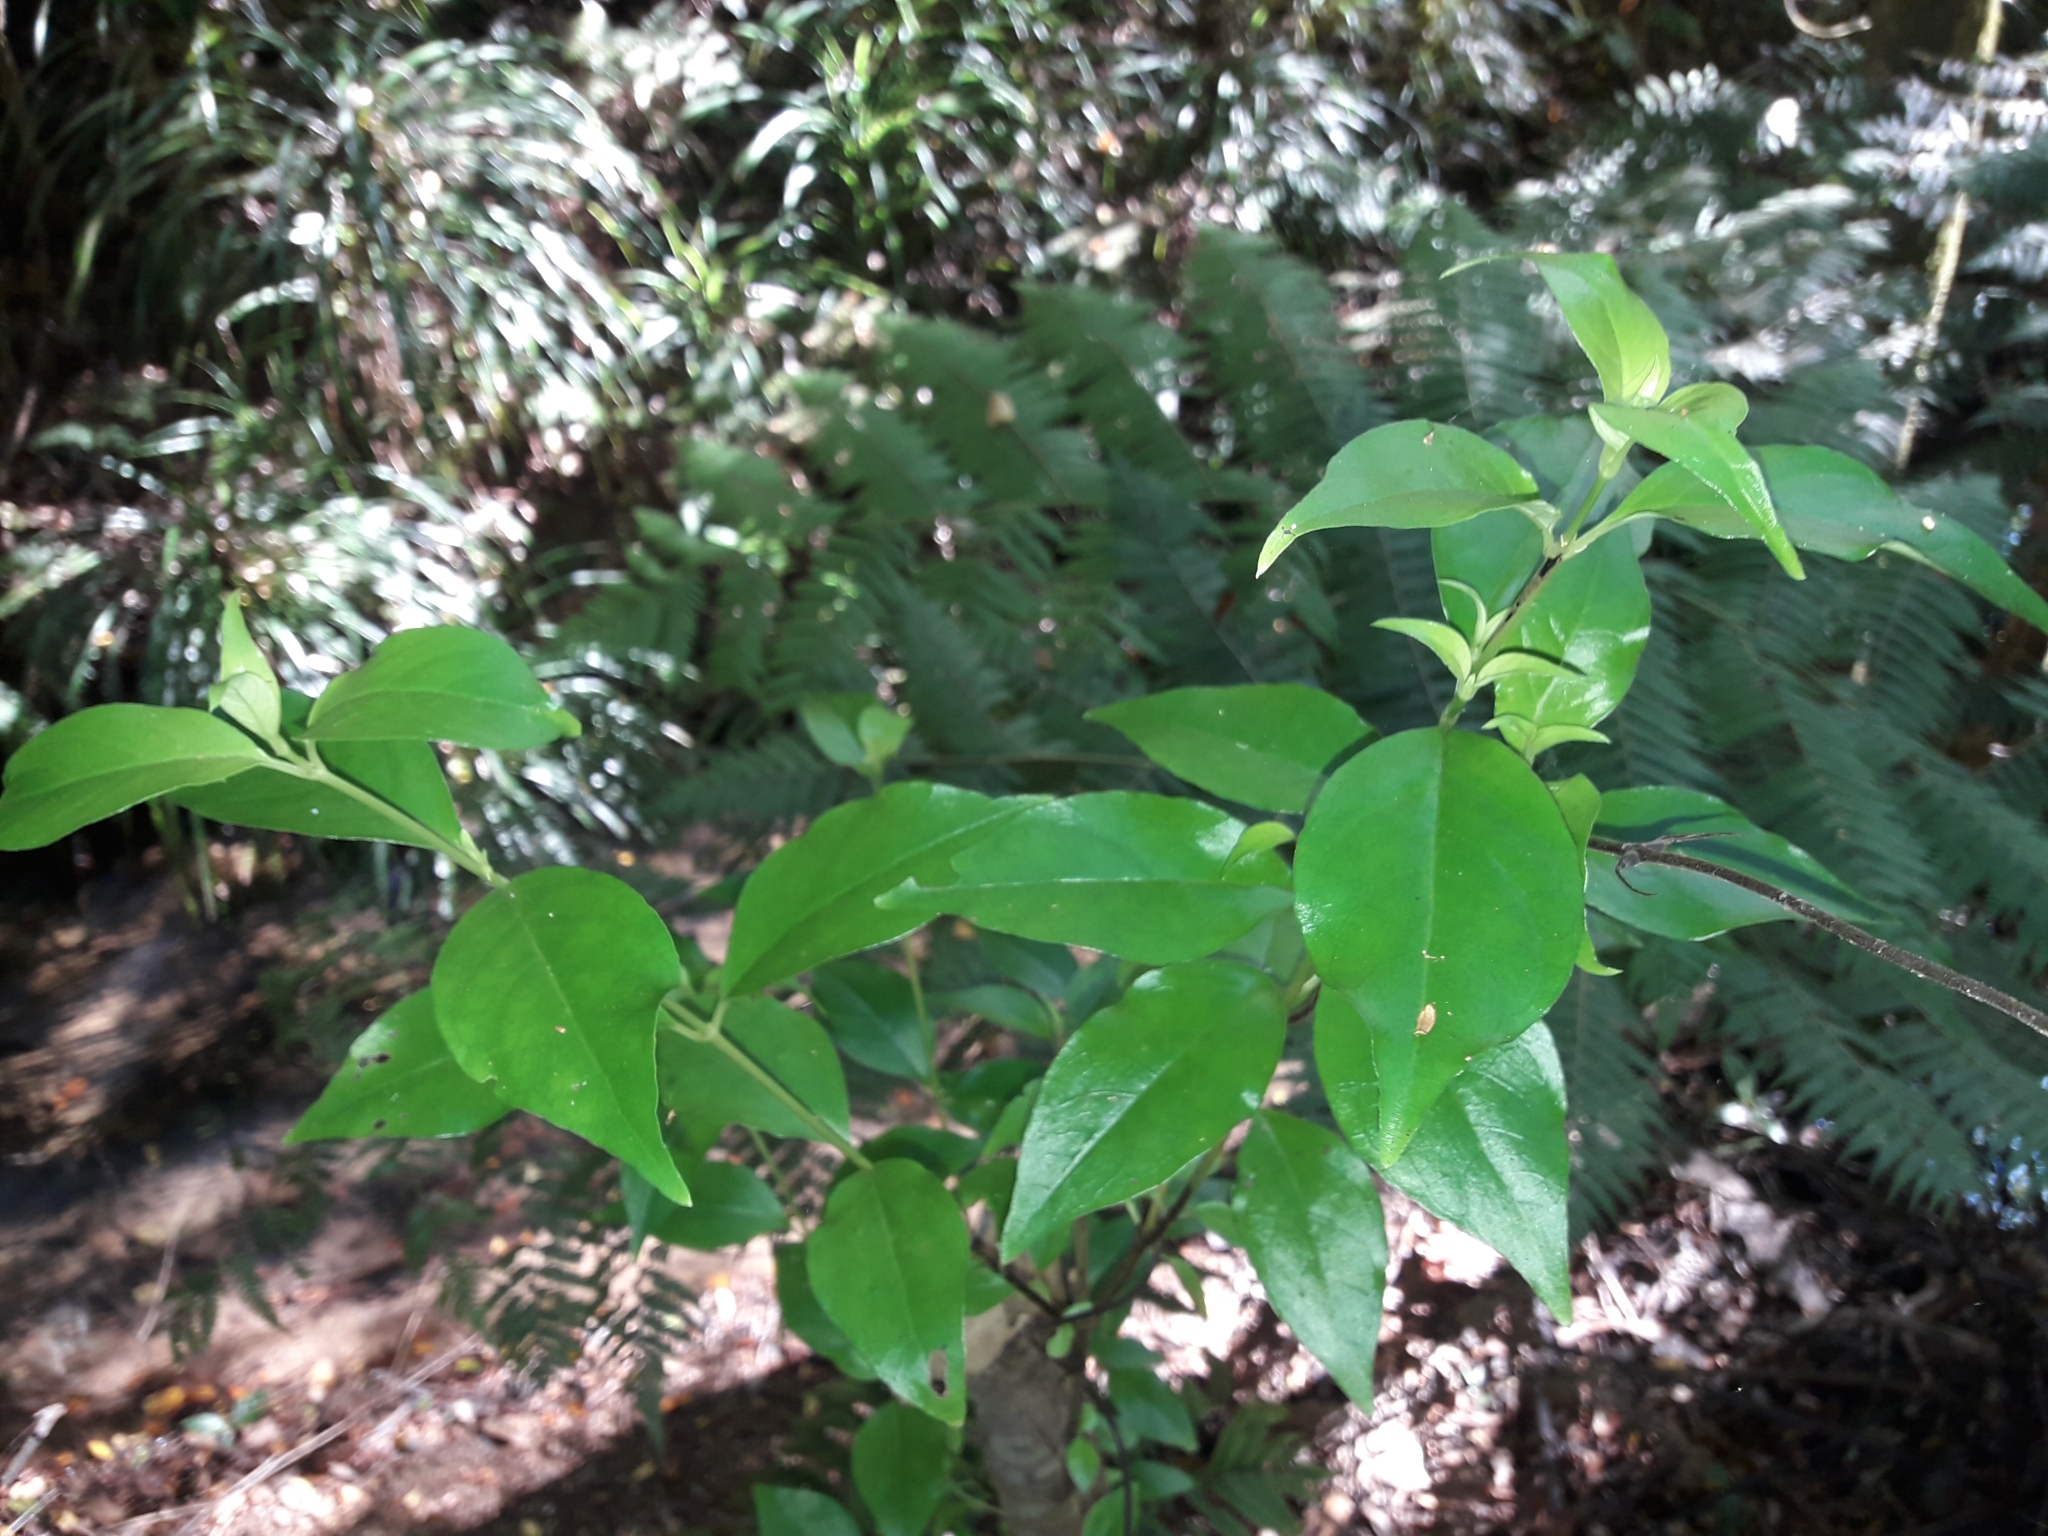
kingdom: Plantae
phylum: Tracheophyta
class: Magnoliopsida
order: Gentianales
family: Loganiaceae
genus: Geniostoma
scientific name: Geniostoma ligustrifolium
